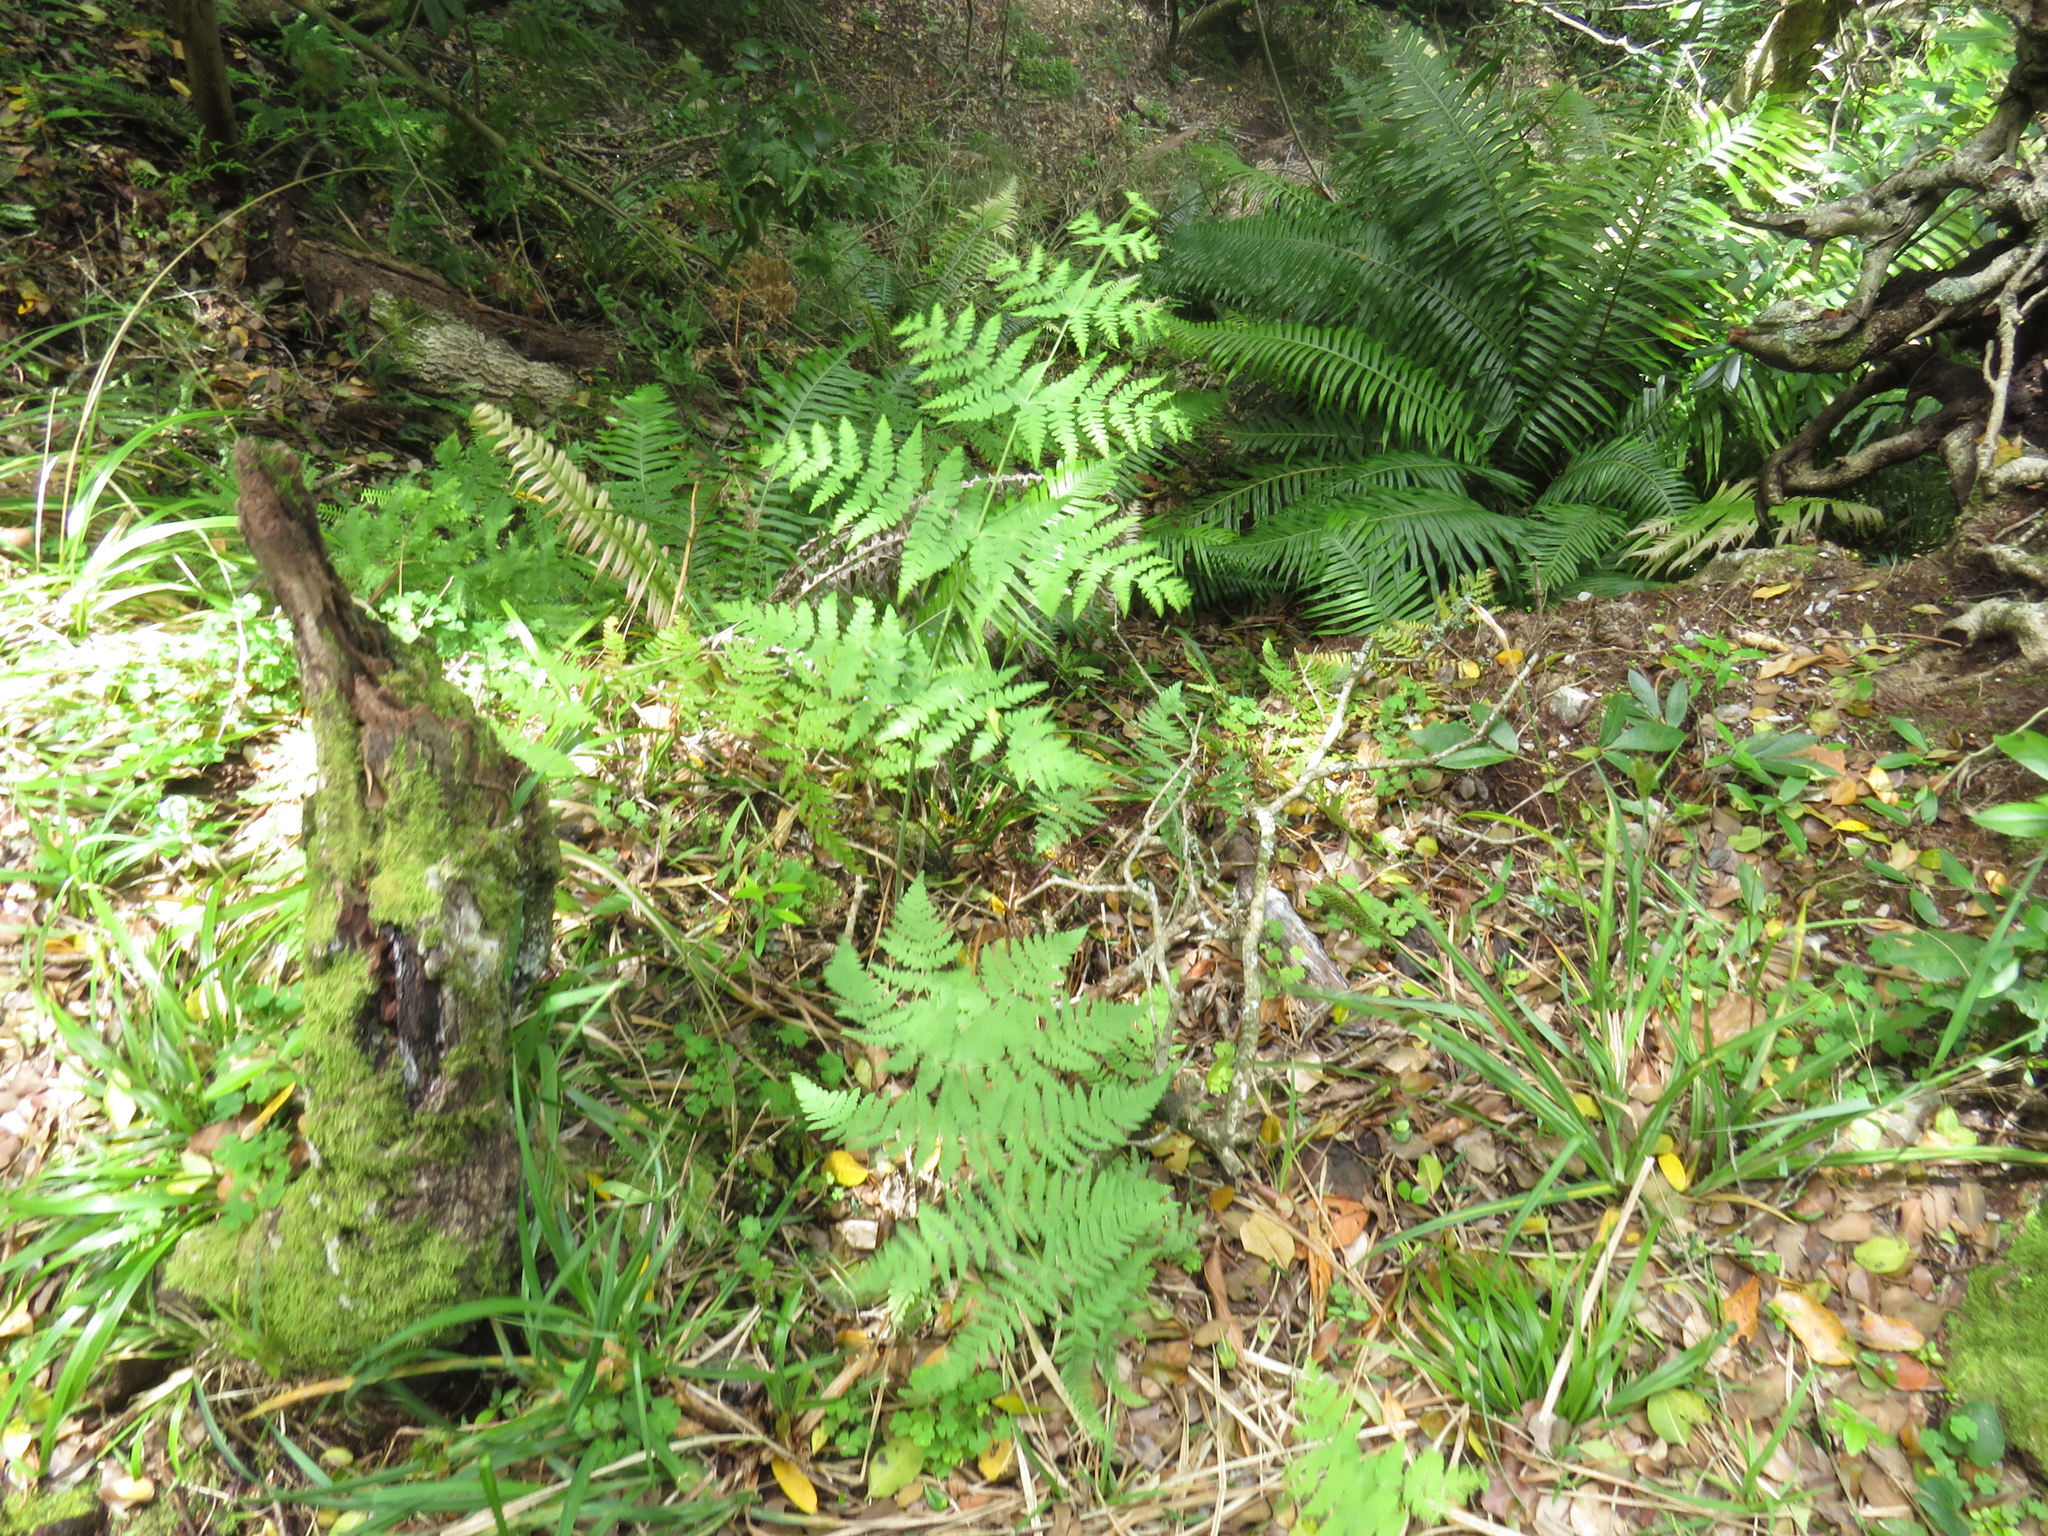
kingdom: Plantae
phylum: Tracheophyta
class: Polypodiopsida
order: Polypodiales
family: Dennstaedtiaceae
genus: Histiopteris
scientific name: Histiopteris incisa
